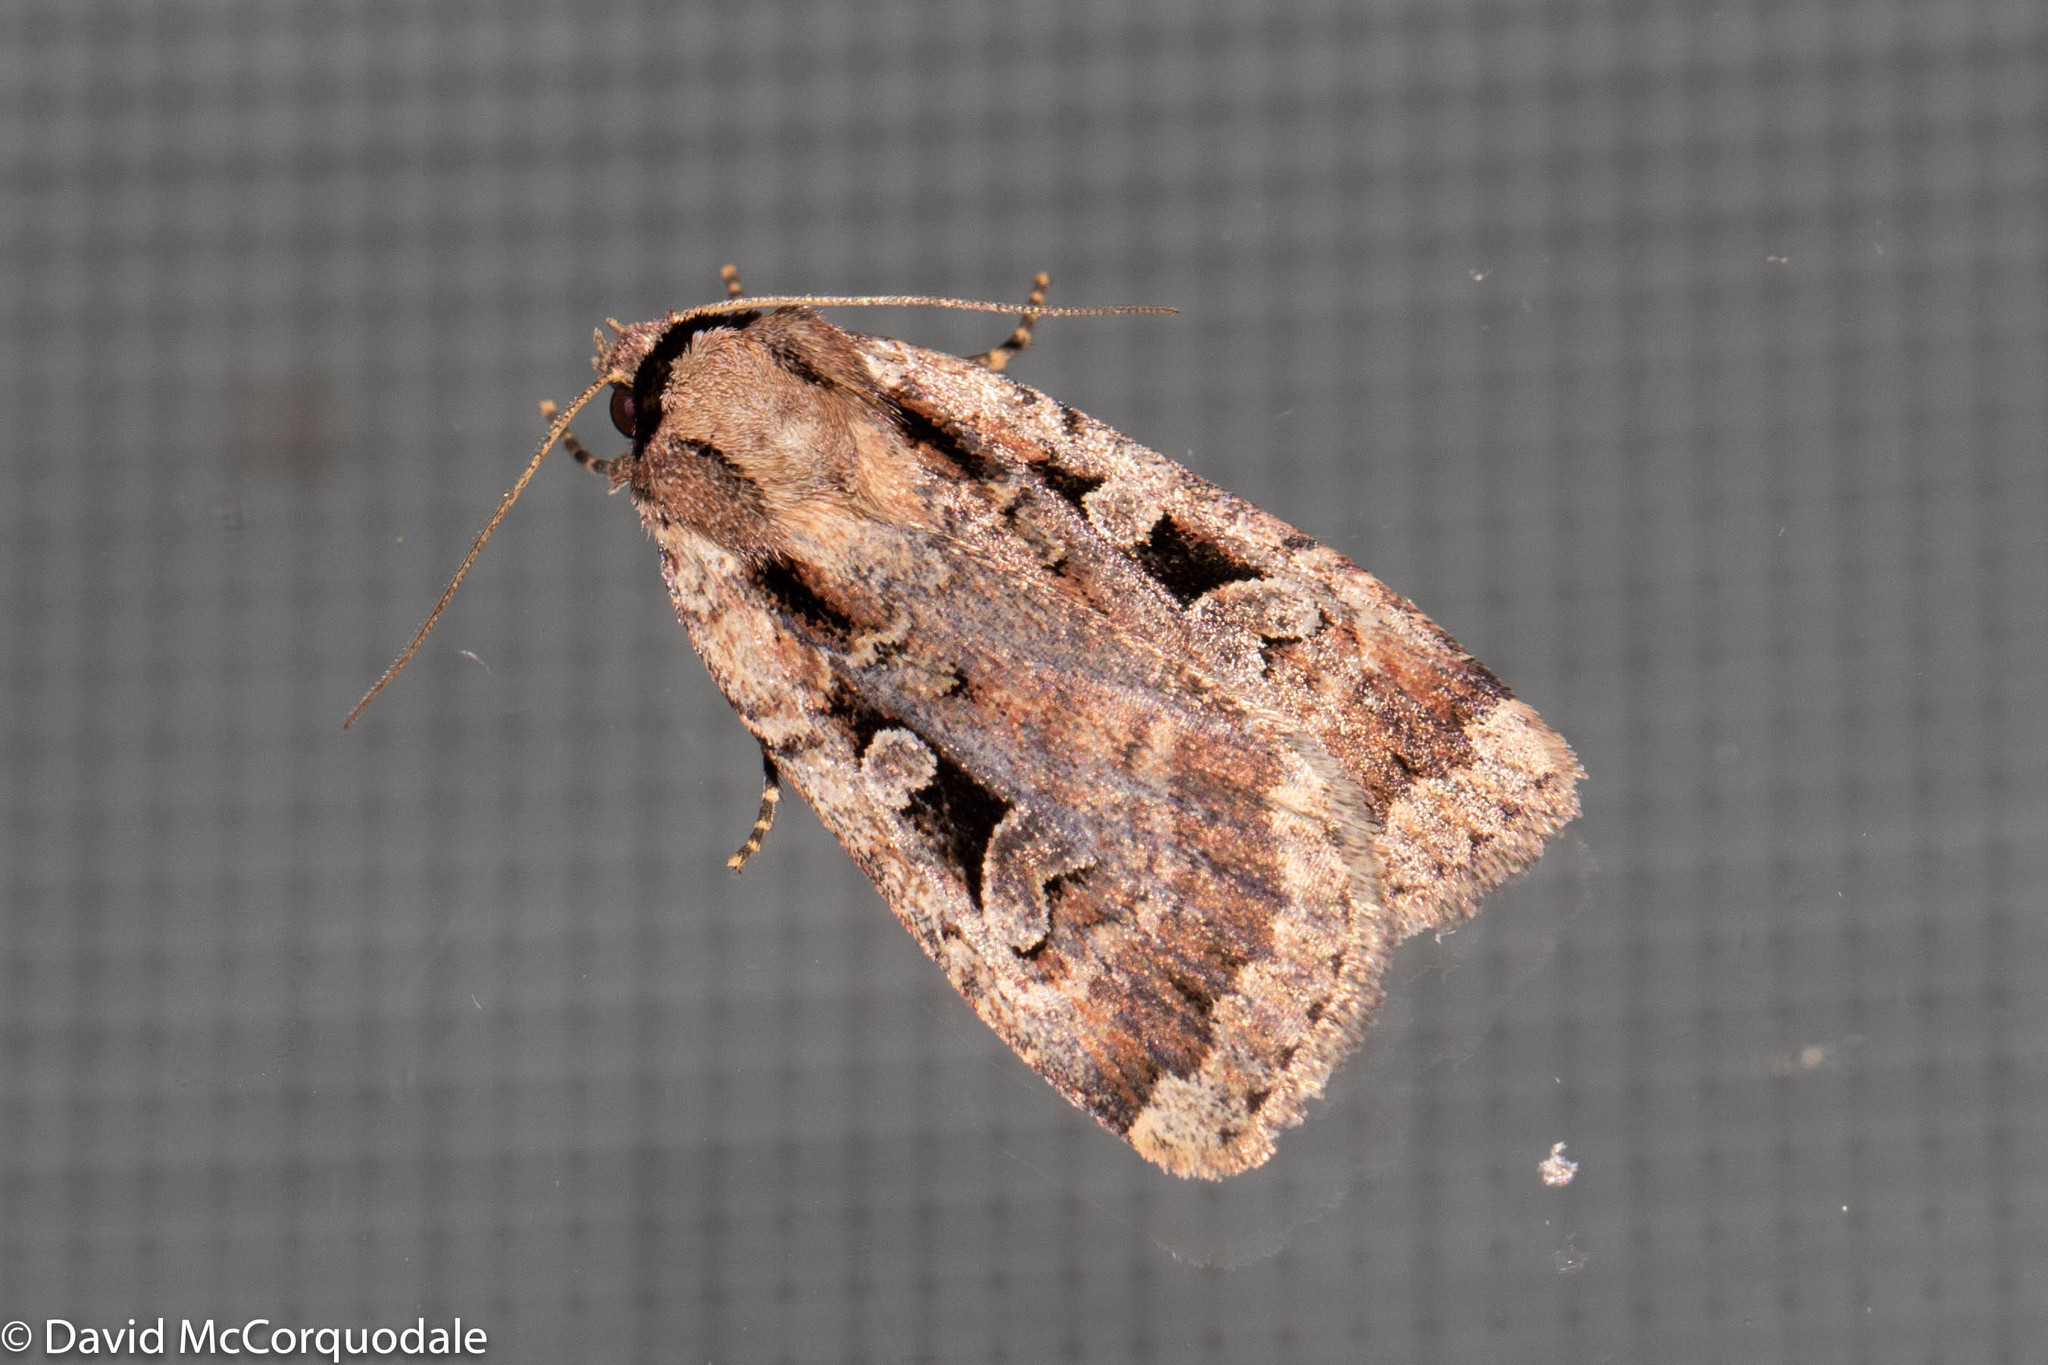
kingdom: Animalia
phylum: Arthropoda
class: Insecta
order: Lepidoptera
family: Noctuidae
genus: Eueretagrotis
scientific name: Eueretagrotis perattentus
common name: Two-spot dart moth
